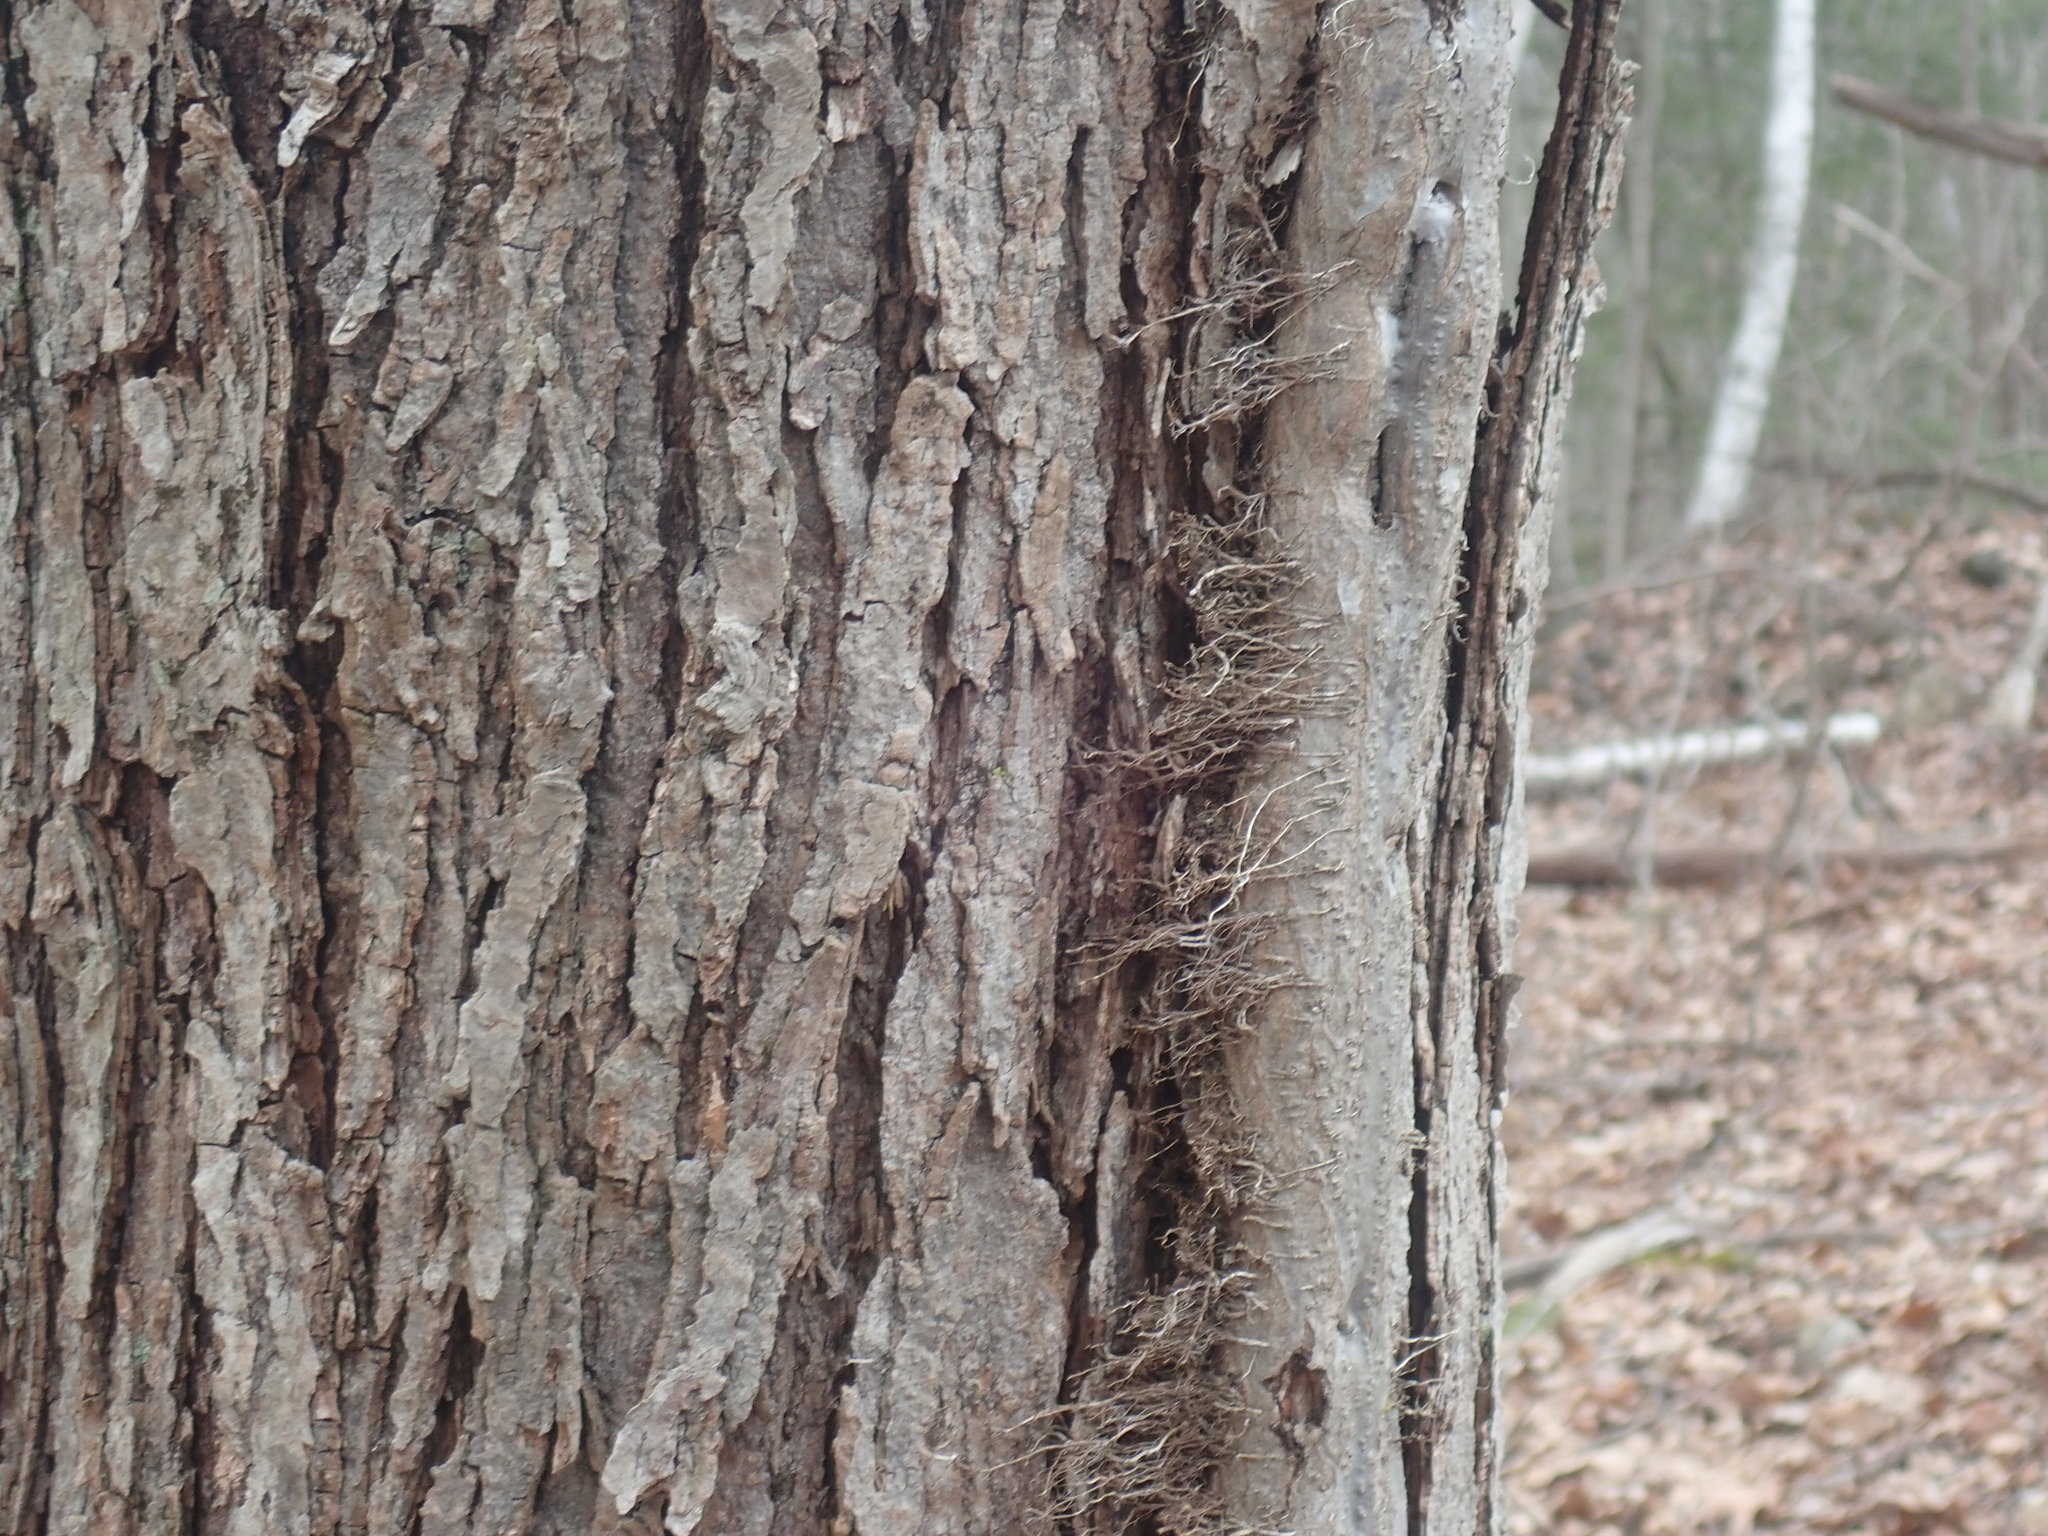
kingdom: Plantae
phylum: Tracheophyta
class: Magnoliopsida
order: Sapindales
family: Anacardiaceae
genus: Toxicodendron
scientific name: Toxicodendron radicans
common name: Poison ivy
